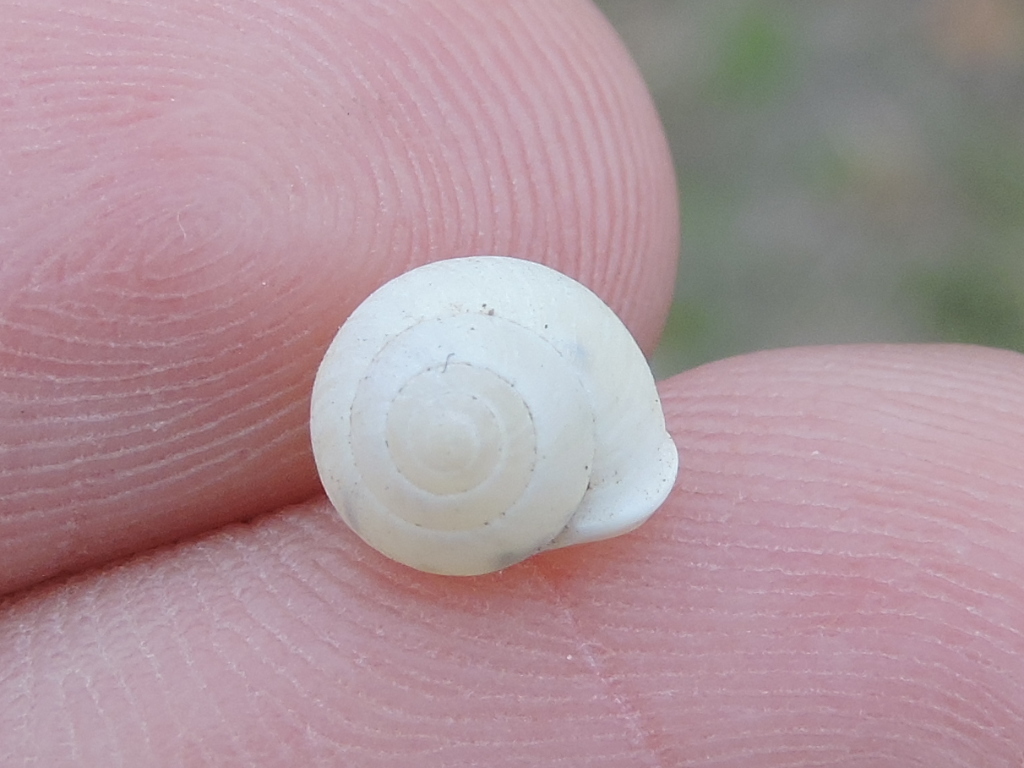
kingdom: Animalia
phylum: Mollusca
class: Gastropoda
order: Cycloneritida
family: Helicinidae
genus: Helicina
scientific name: Helicina orbiculata
